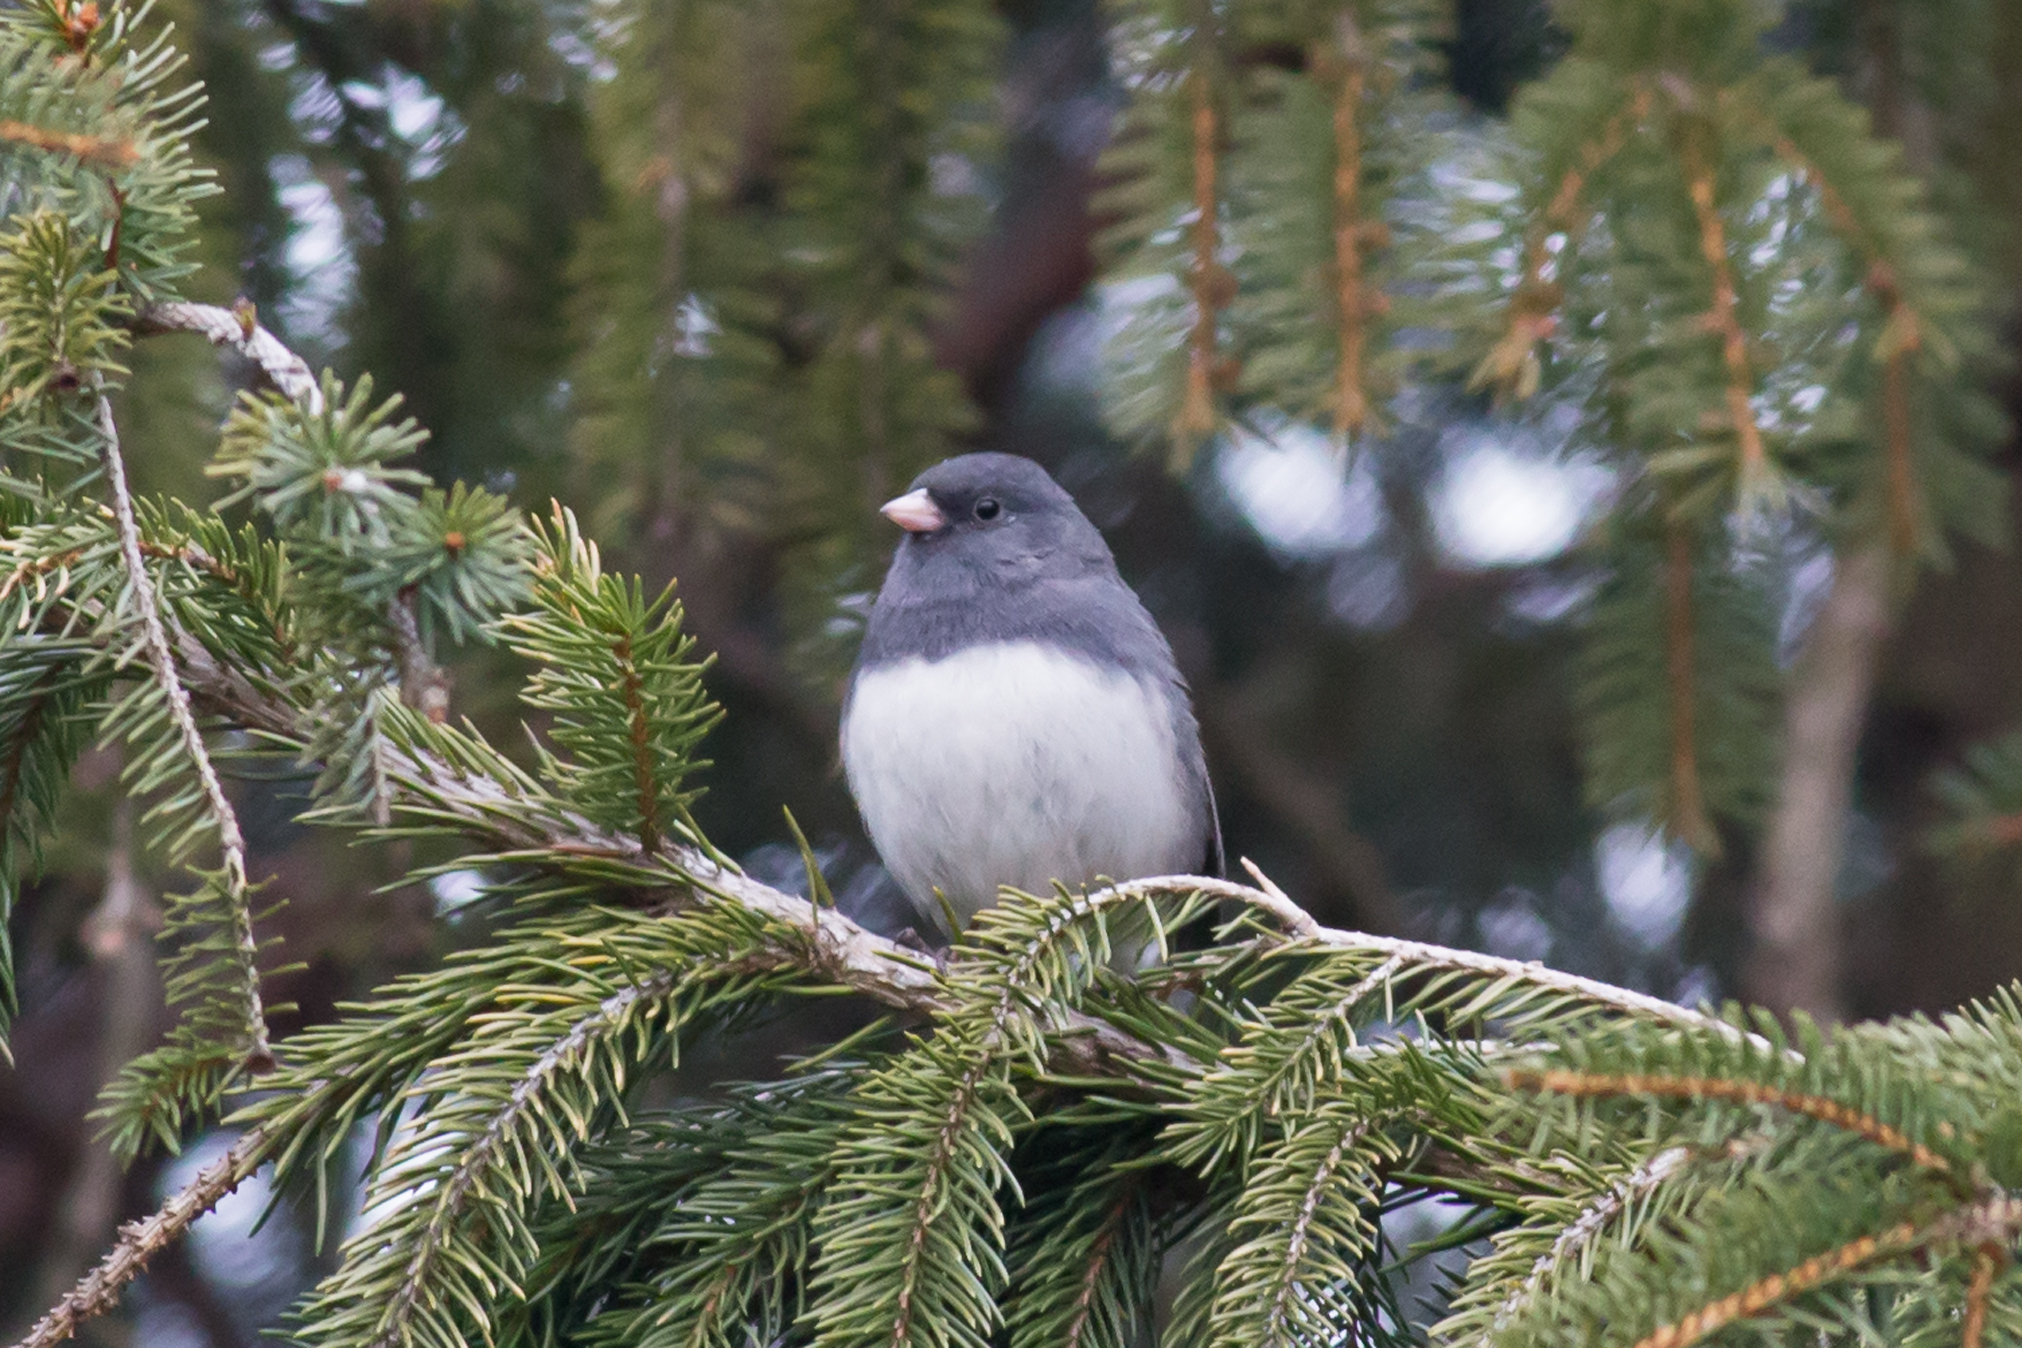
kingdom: Animalia
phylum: Chordata
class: Aves
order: Passeriformes
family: Passerellidae
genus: Junco
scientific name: Junco hyemalis
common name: Dark-eyed junco
